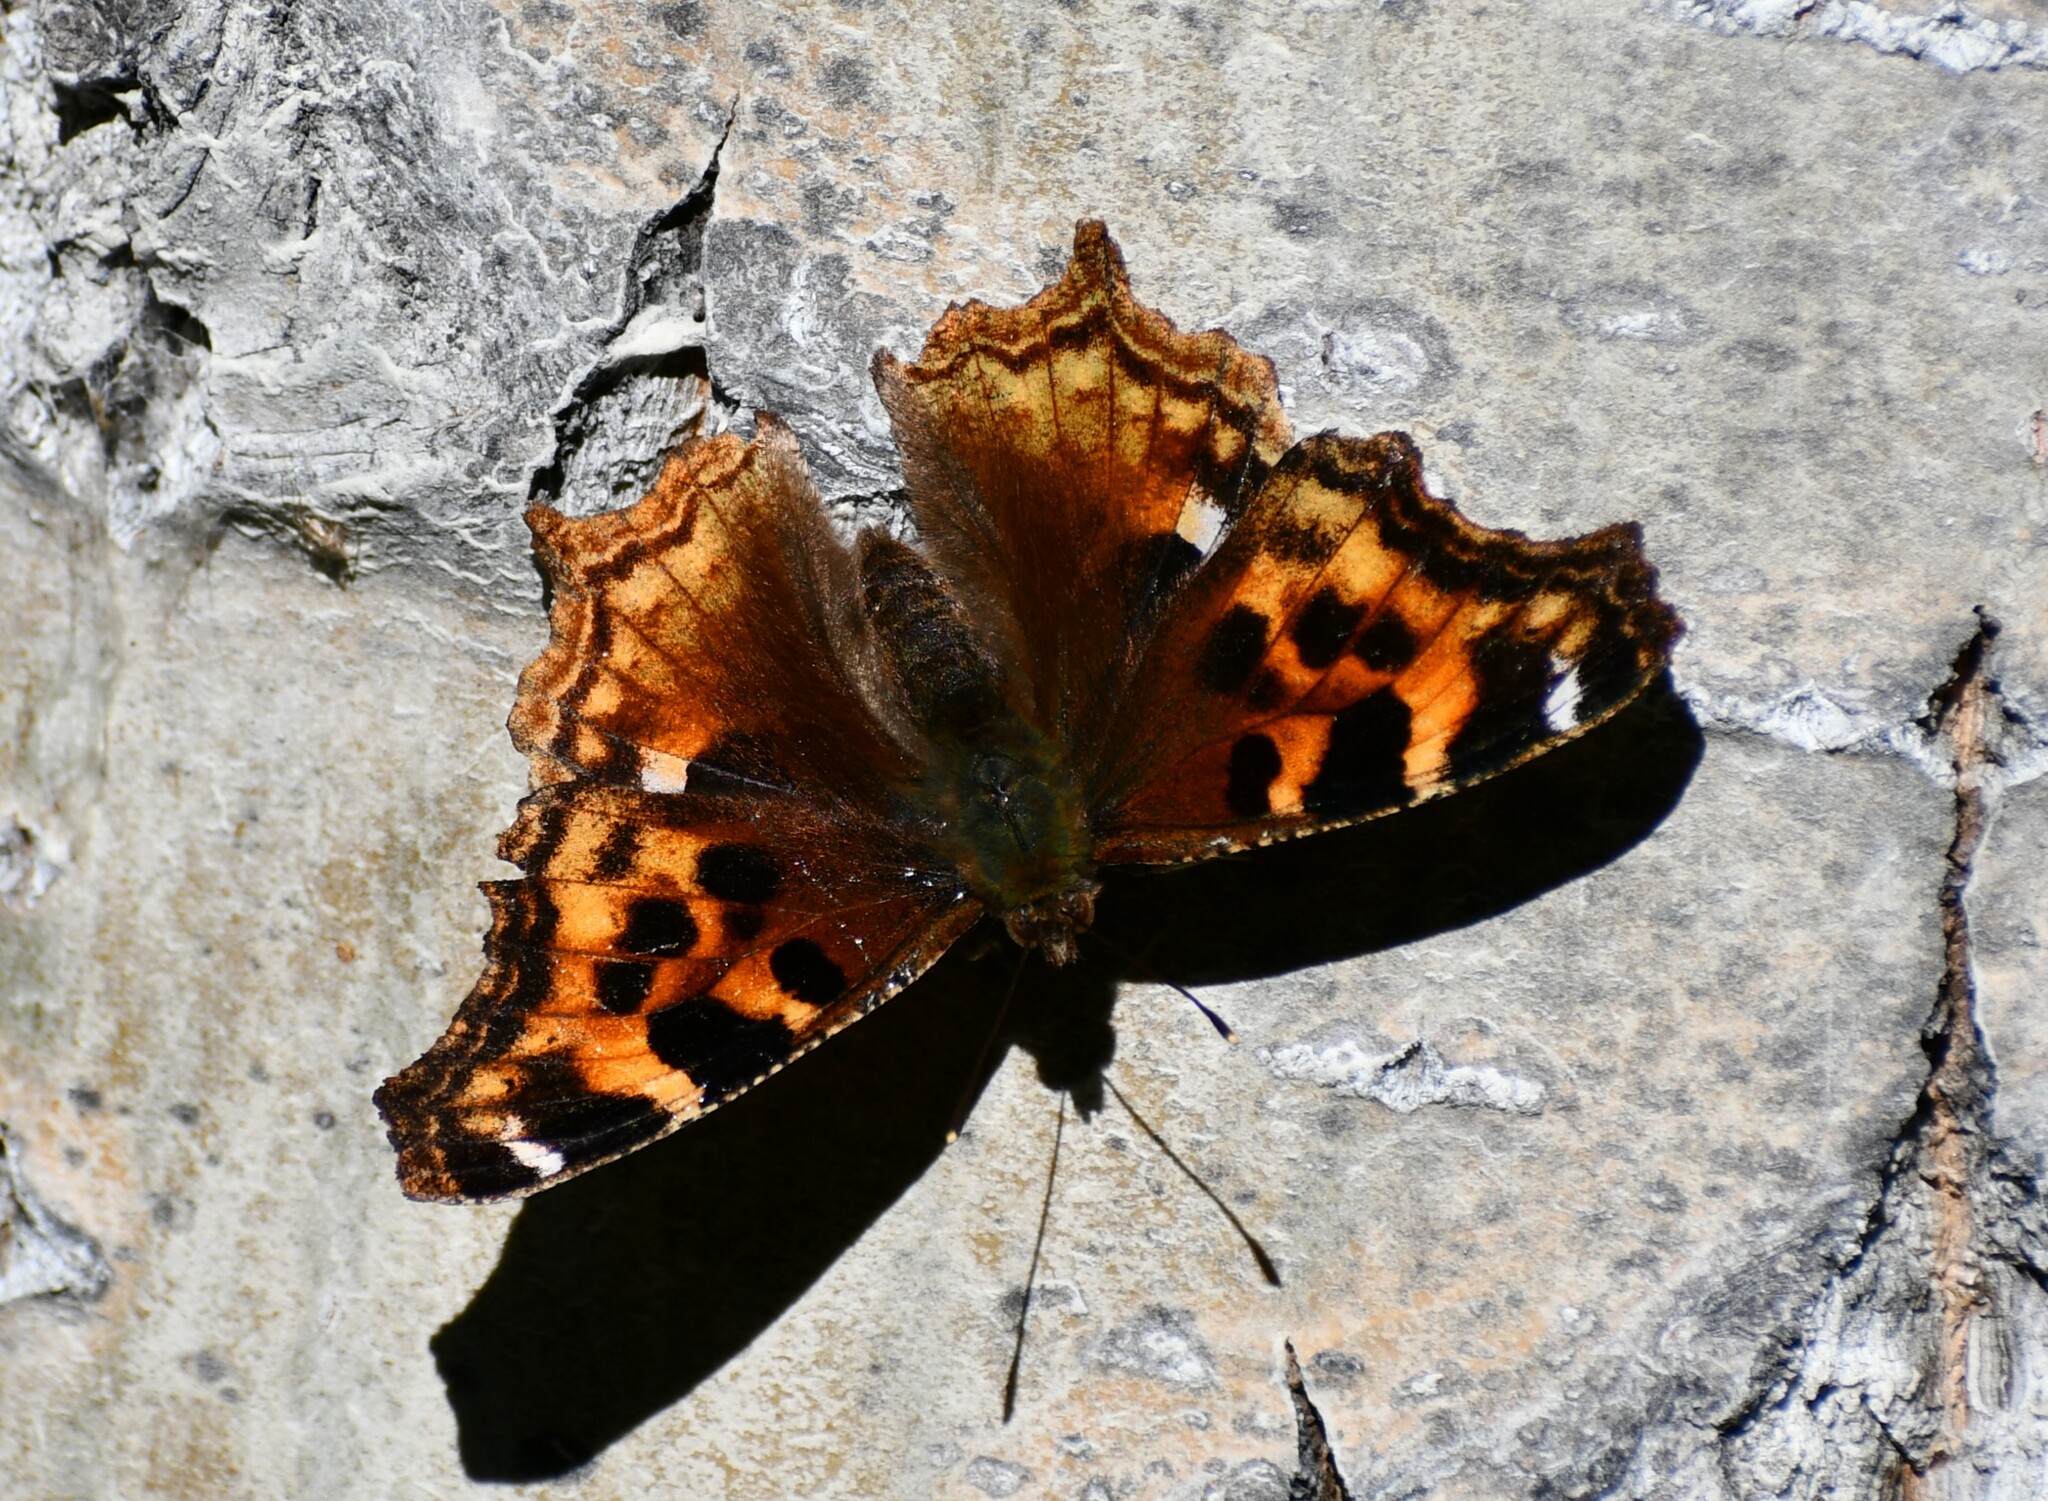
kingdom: Animalia
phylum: Arthropoda
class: Insecta
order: Lepidoptera
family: Nymphalidae
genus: Polygonia
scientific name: Polygonia vaualbum
